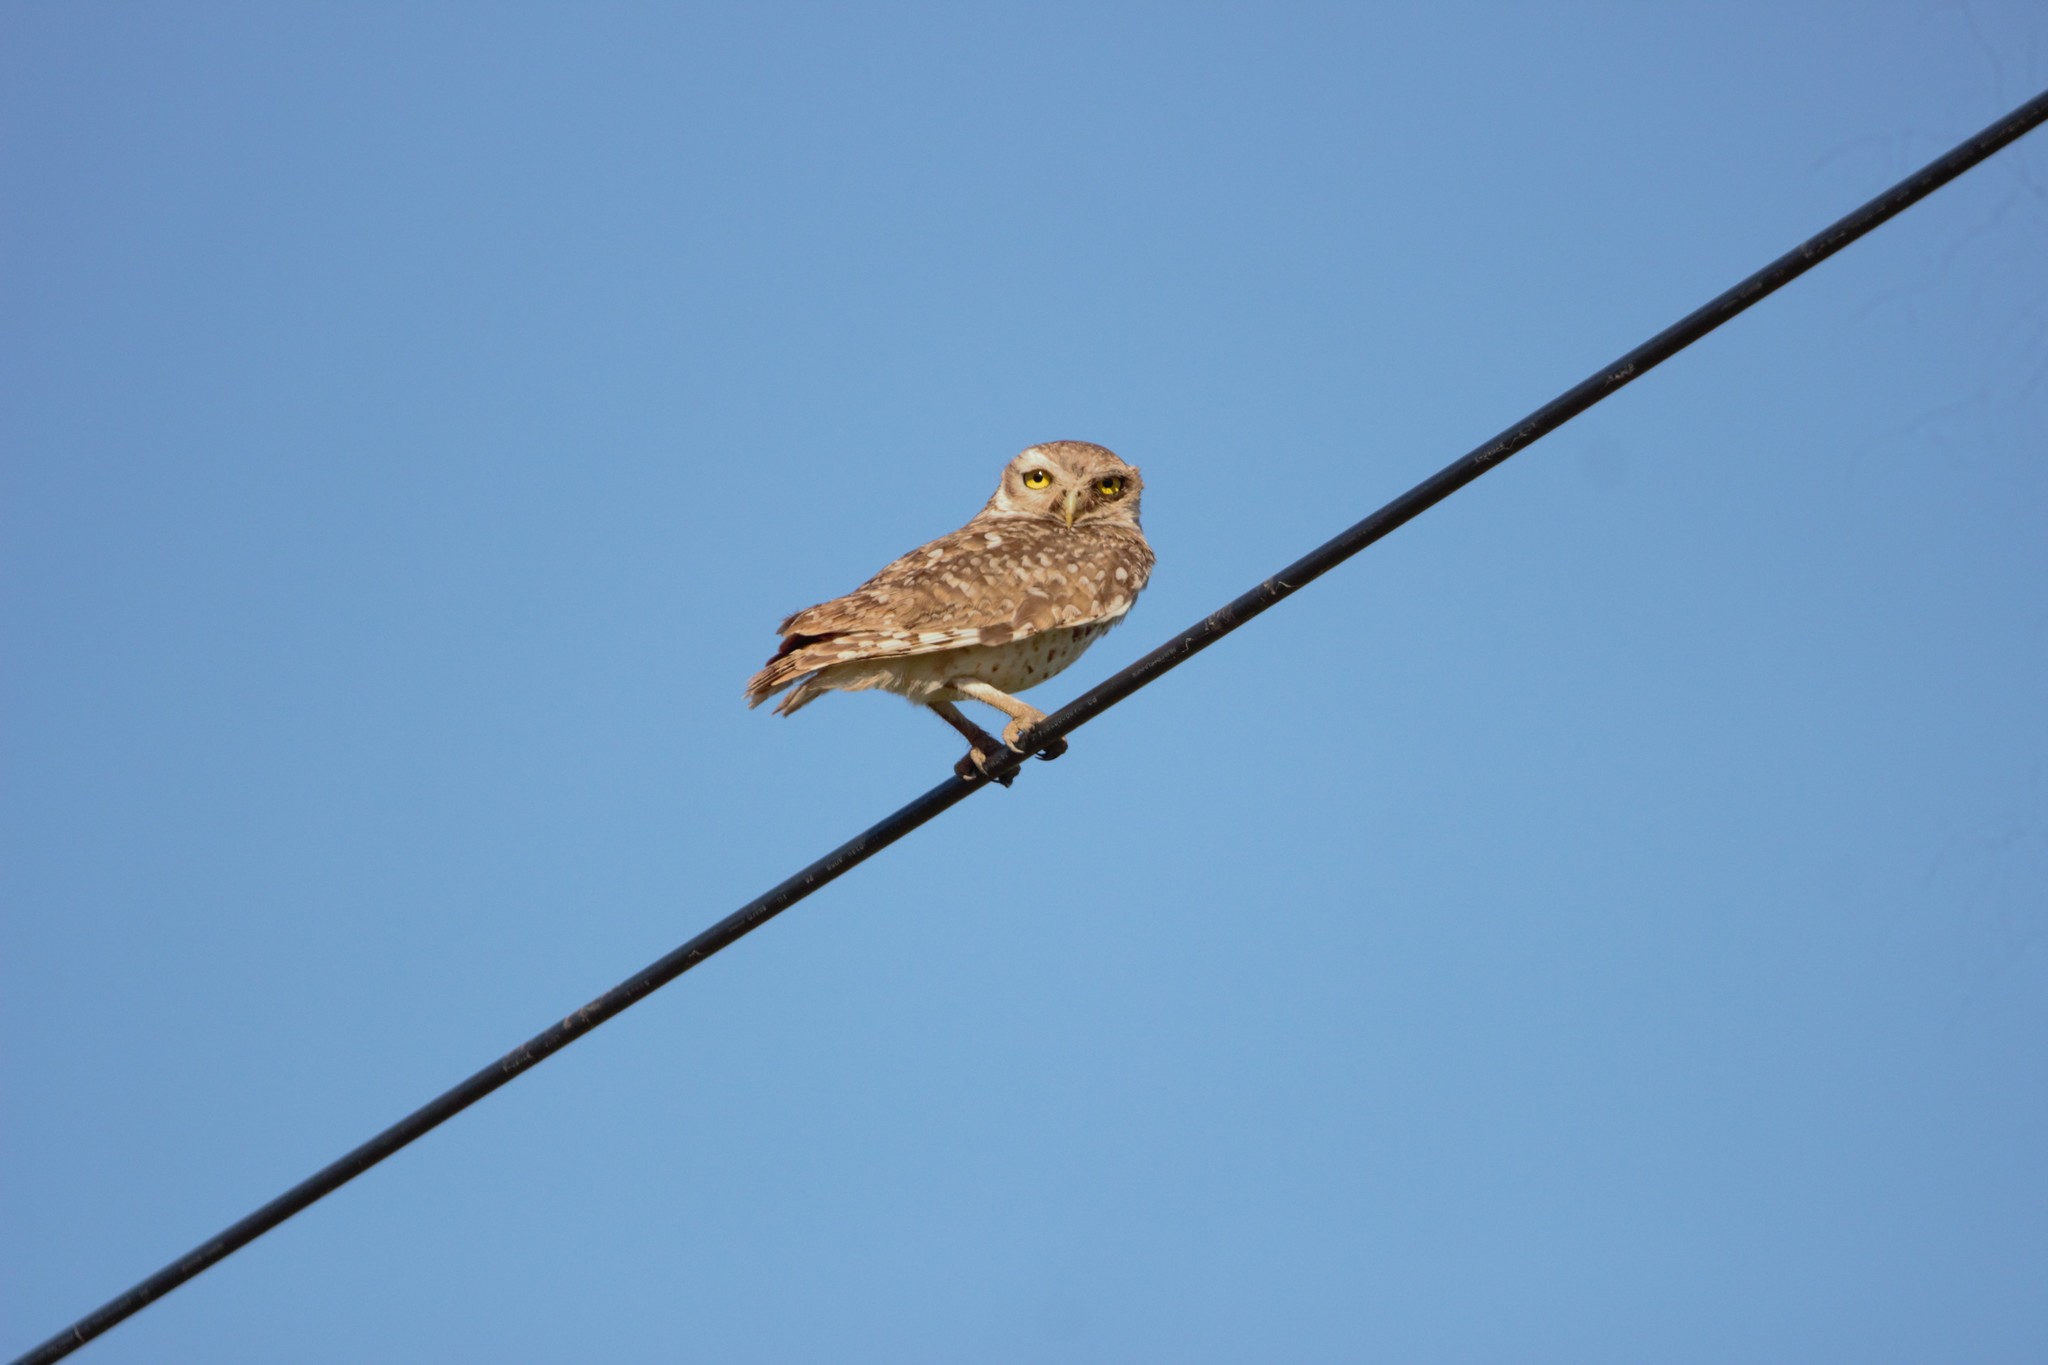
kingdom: Animalia
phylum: Chordata
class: Aves
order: Strigiformes
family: Strigidae
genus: Athene
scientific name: Athene cunicularia
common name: Burrowing owl
